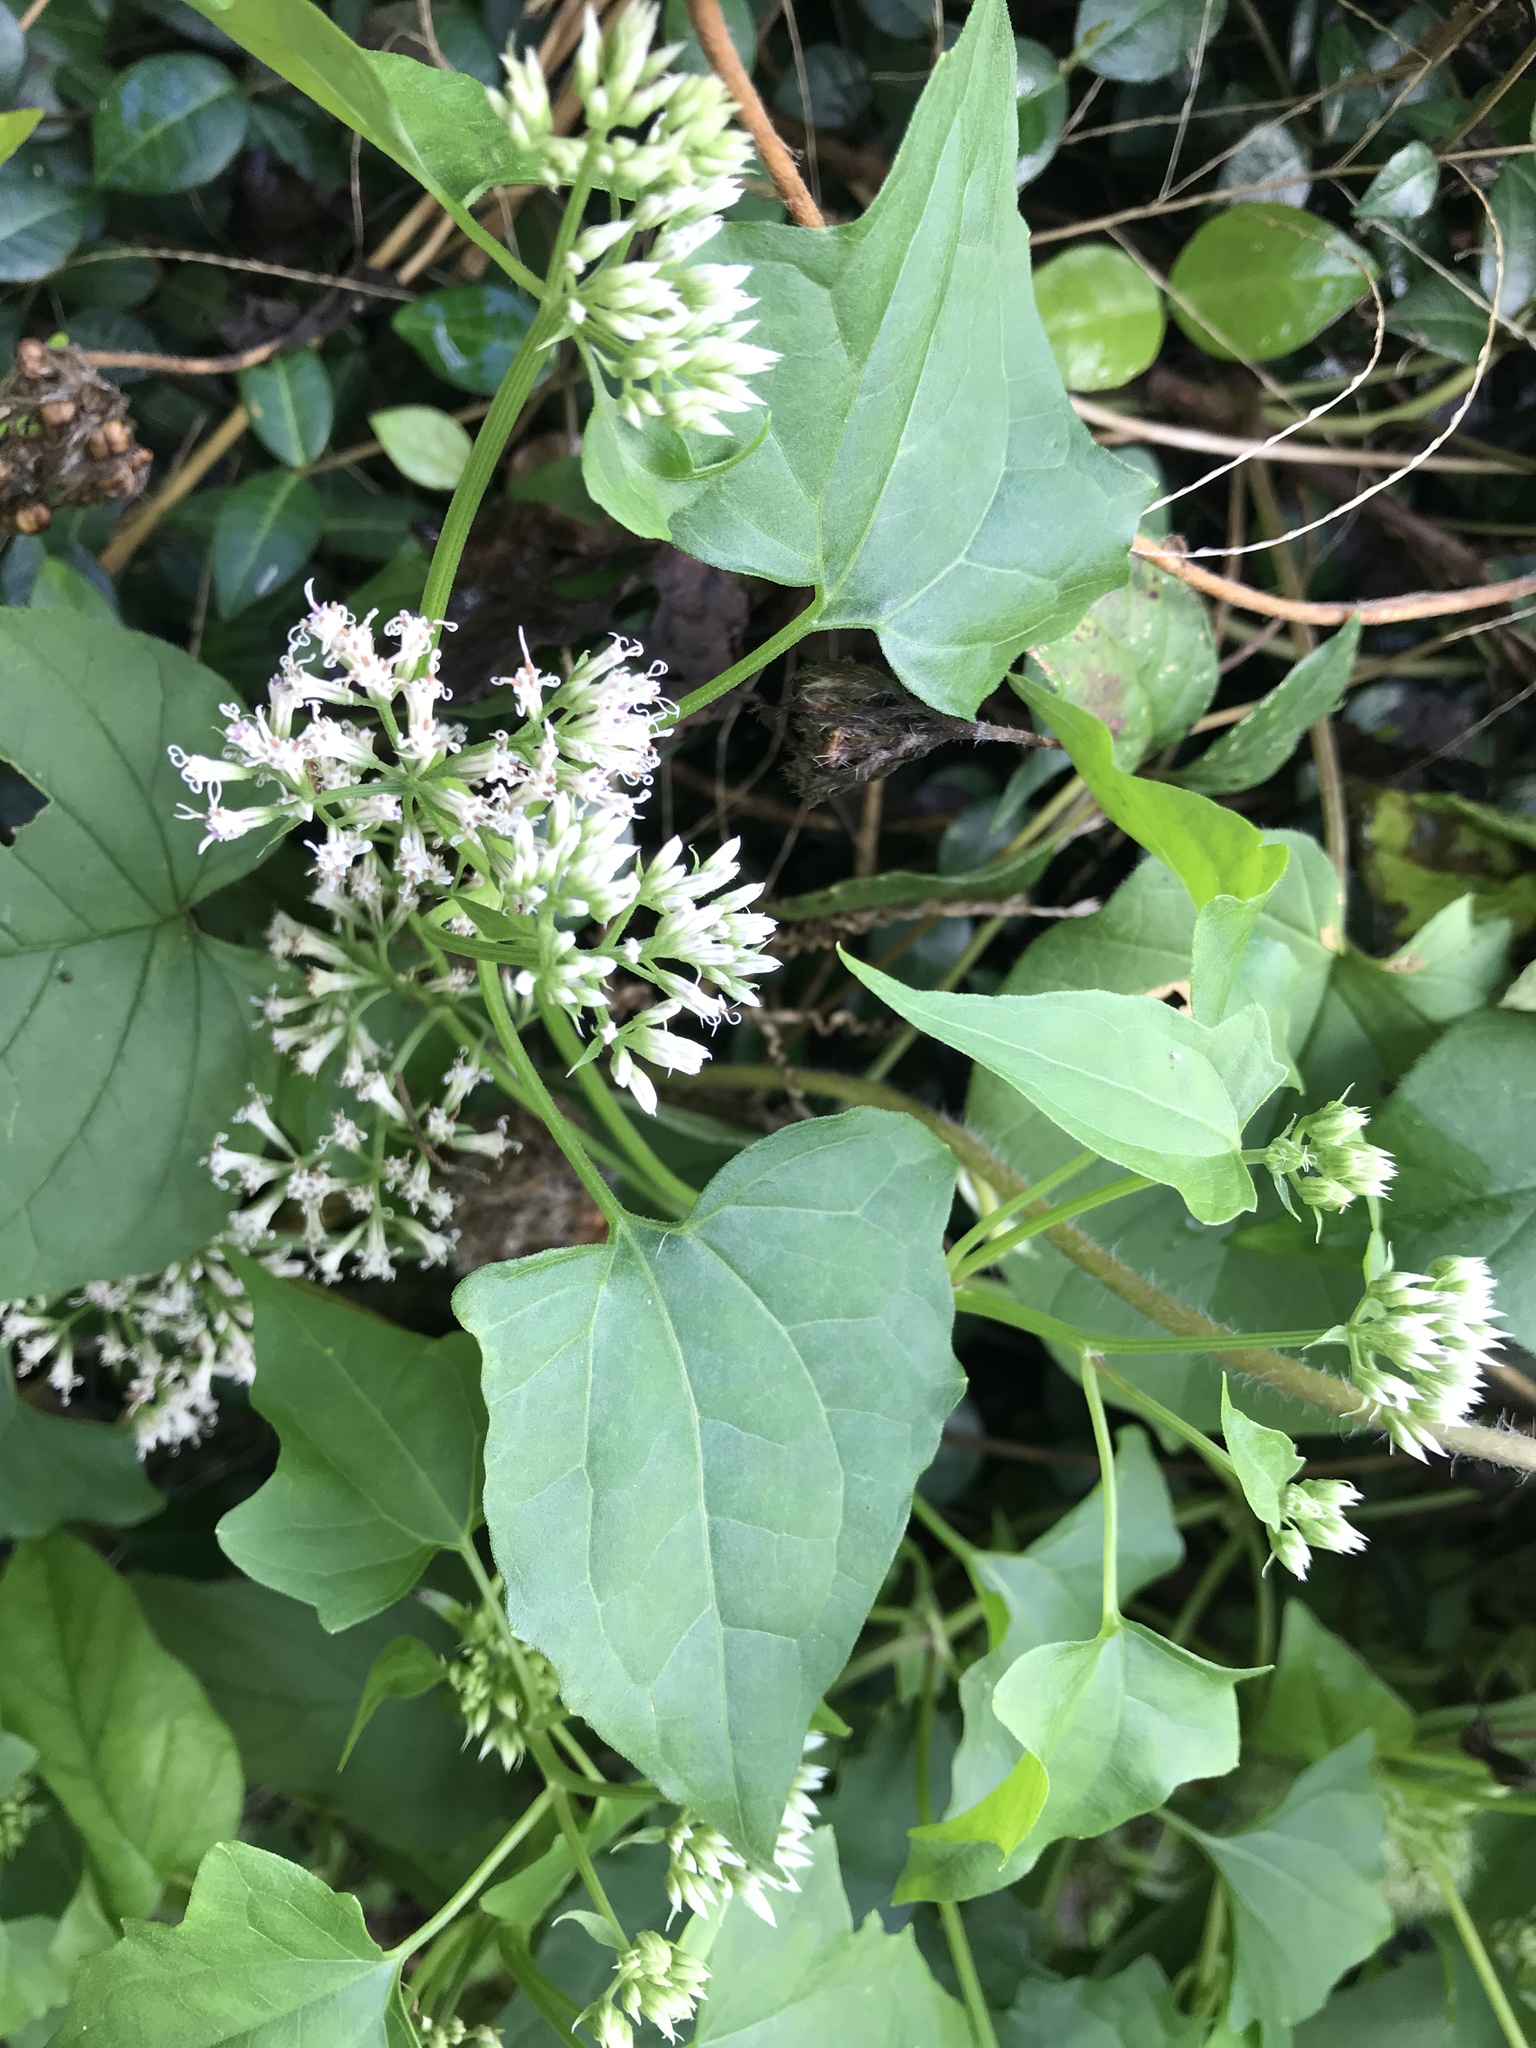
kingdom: Plantae
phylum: Tracheophyta
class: Magnoliopsida
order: Asterales
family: Asteraceae
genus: Mikania
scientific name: Mikania scandens
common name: Climbing hempvine
